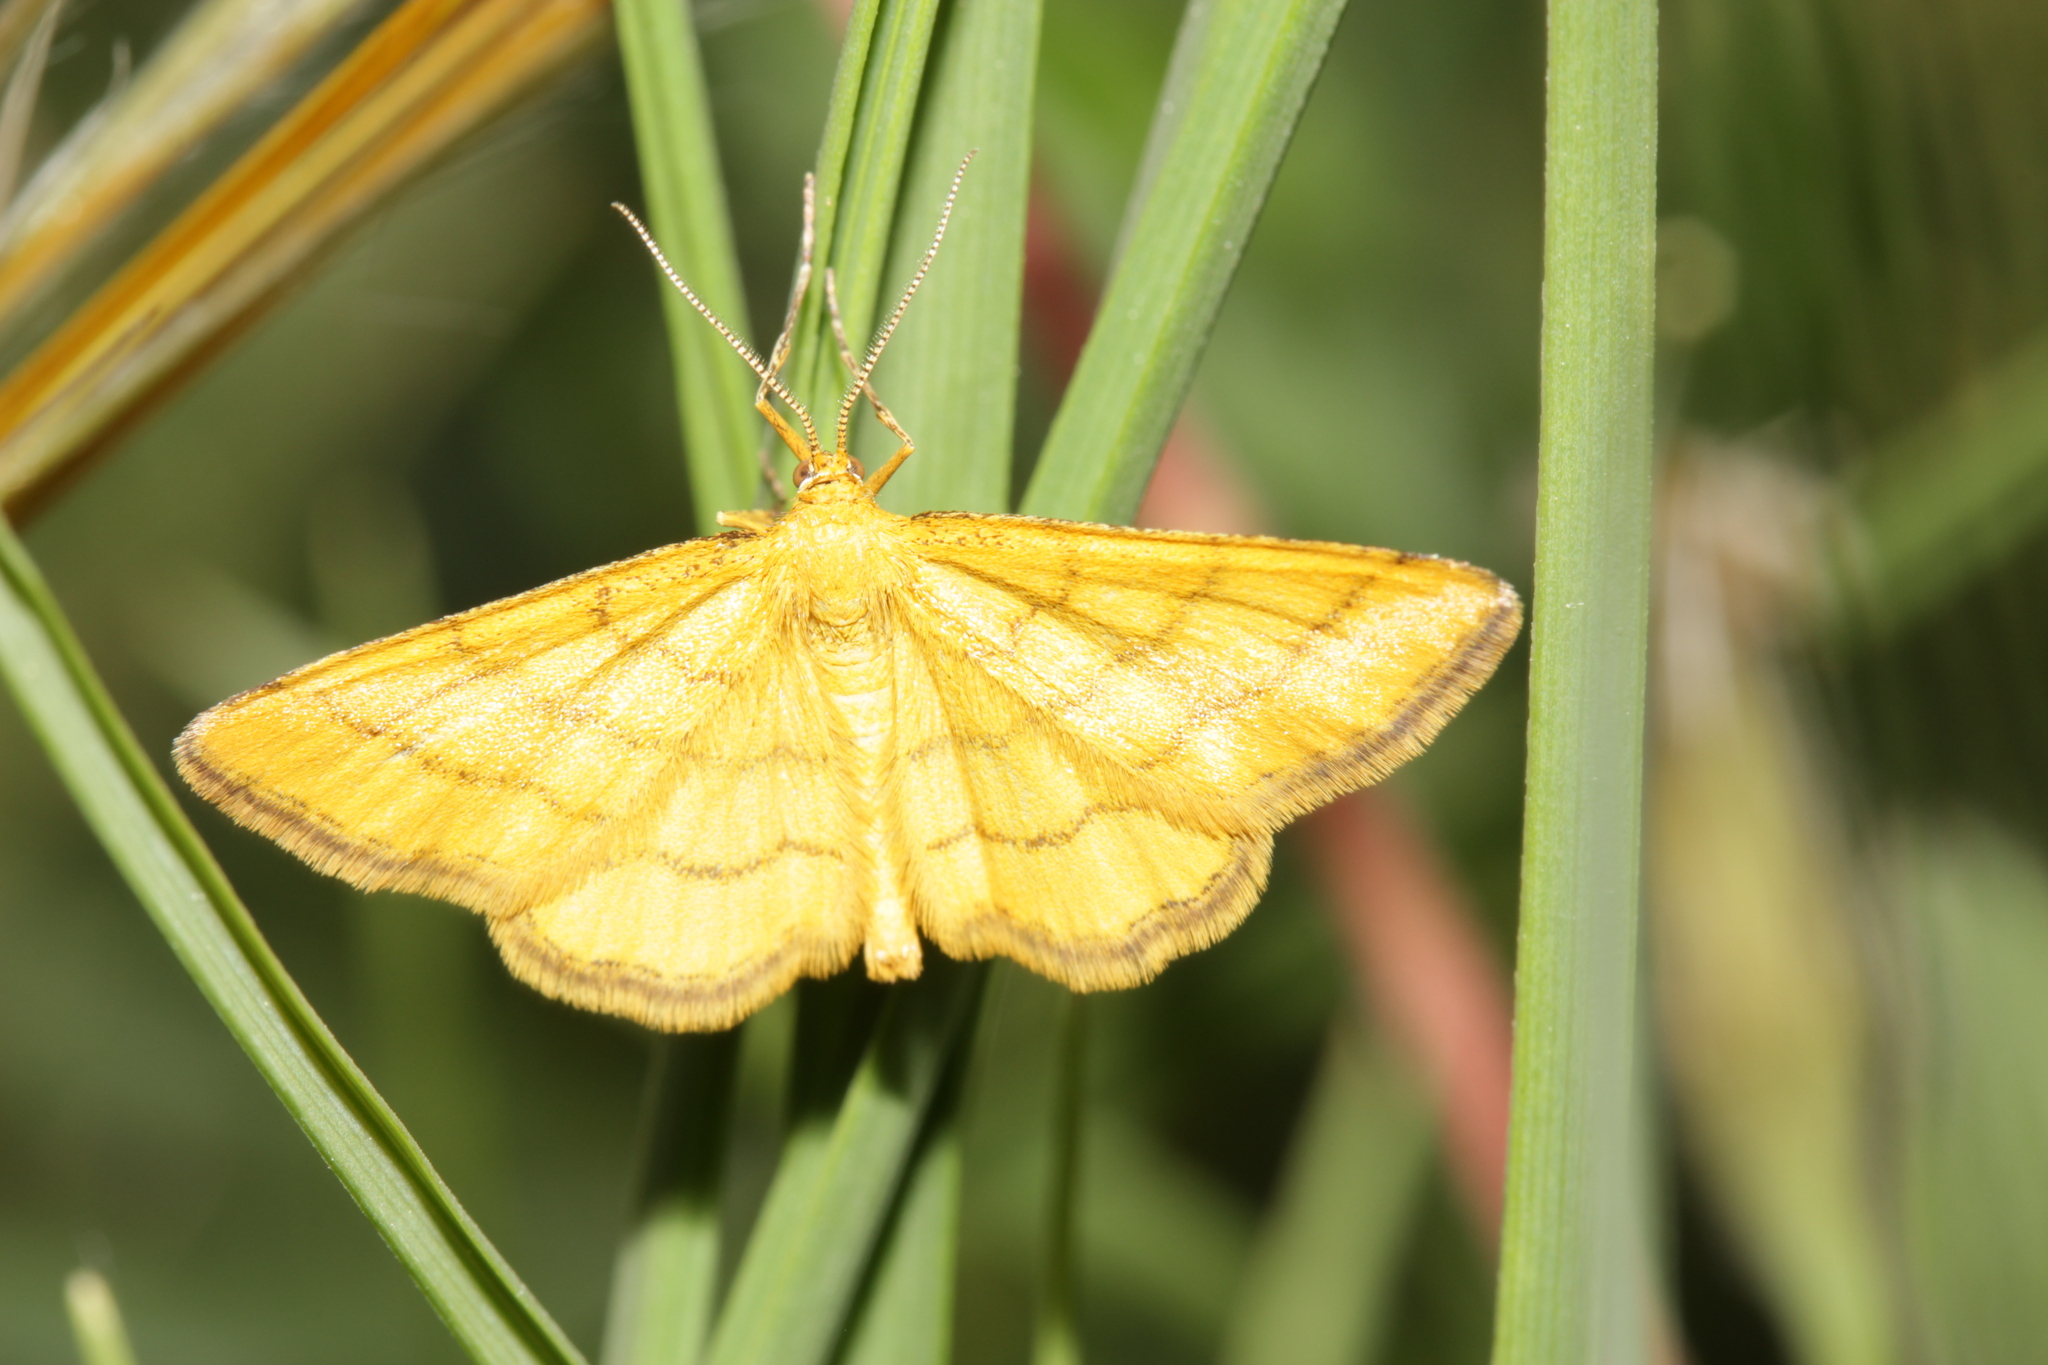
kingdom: Animalia
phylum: Arthropoda
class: Insecta
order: Lepidoptera
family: Geometridae
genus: Idaea
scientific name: Idaea aureolaria
